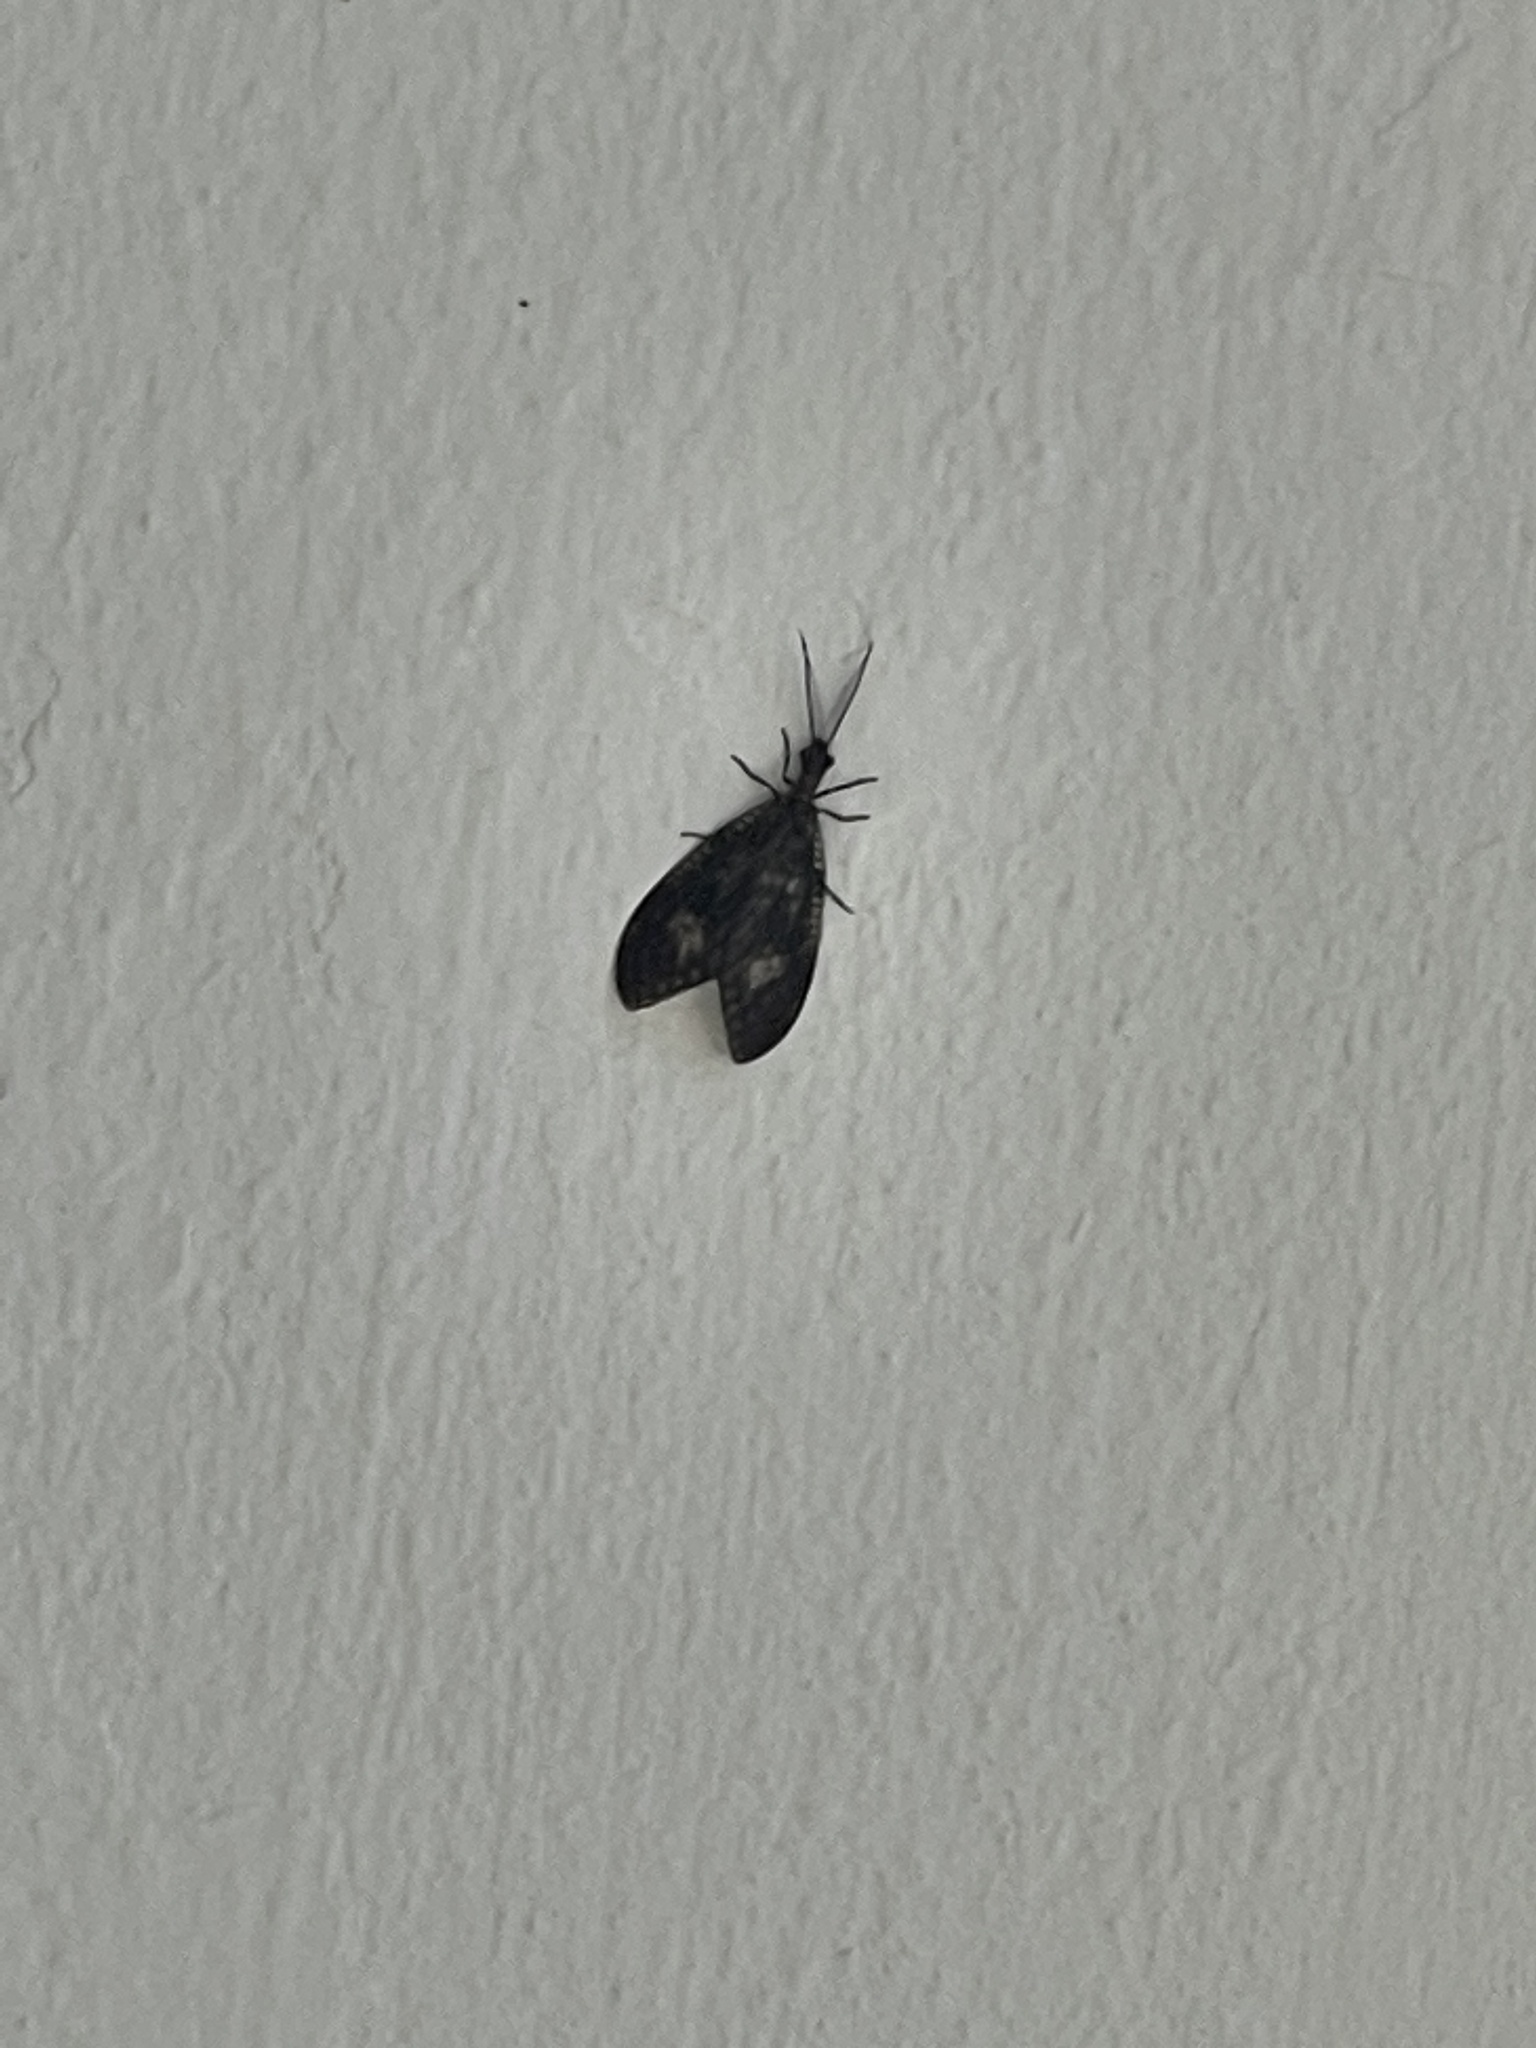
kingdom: Animalia
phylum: Arthropoda
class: Insecta
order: Megaloptera
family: Corydalidae
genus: Neochauliodes
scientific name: Neochauliodes koreanus
